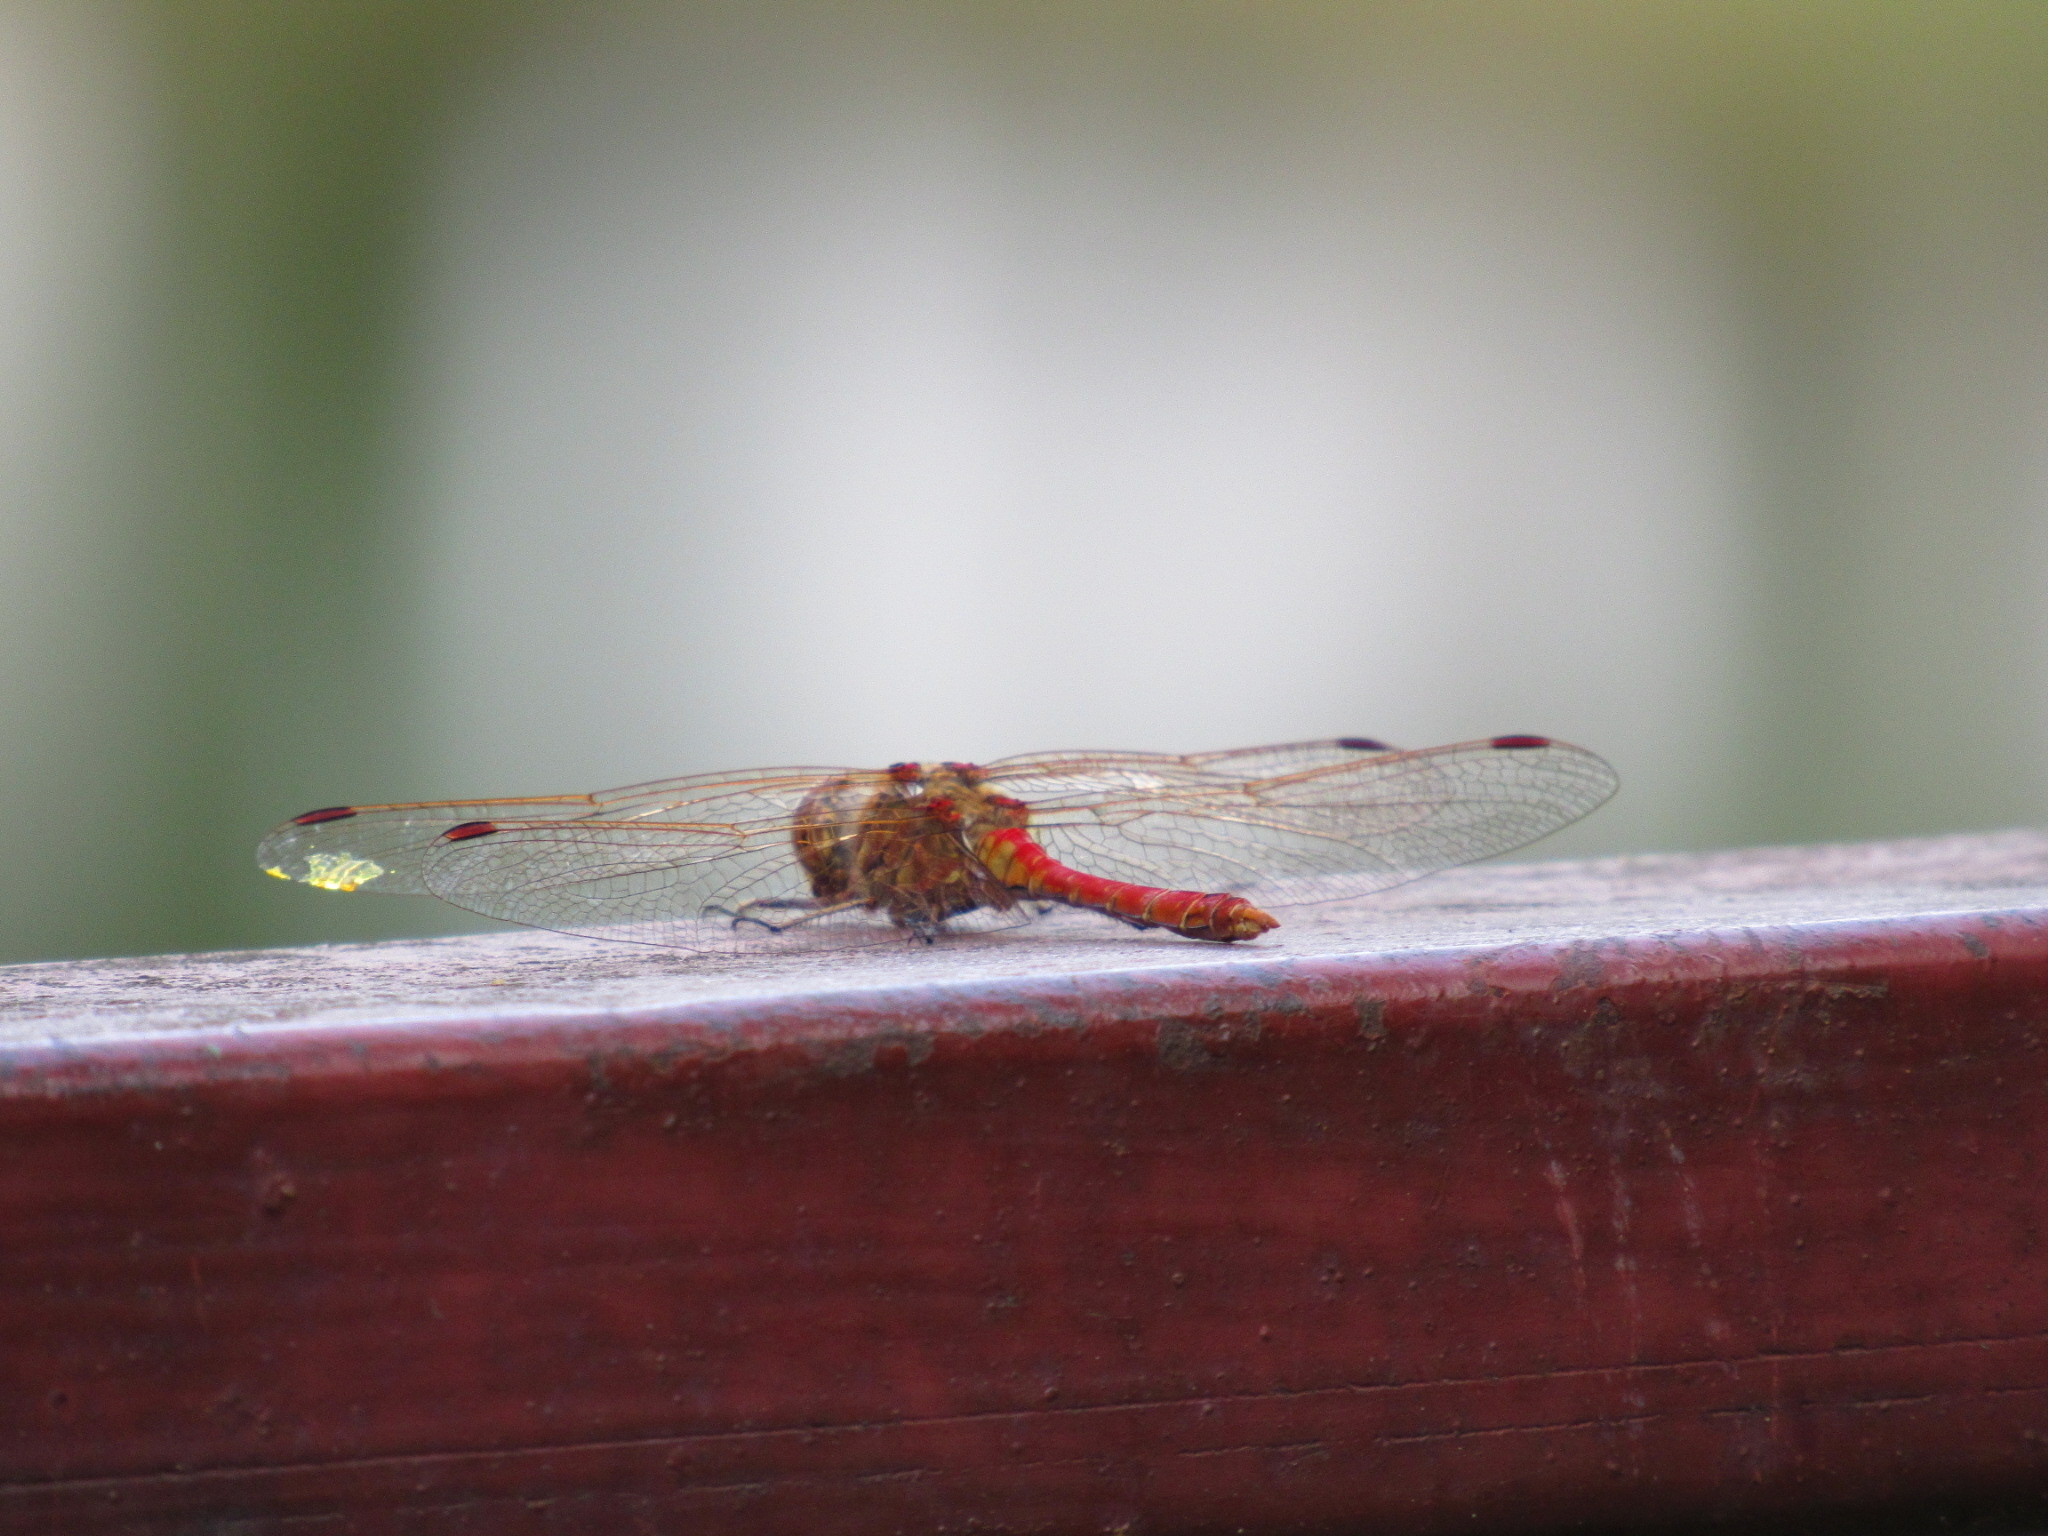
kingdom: Animalia
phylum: Arthropoda
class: Insecta
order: Odonata
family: Libellulidae
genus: Sympetrum
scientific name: Sympetrum vulgatum
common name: Vagrant darter
